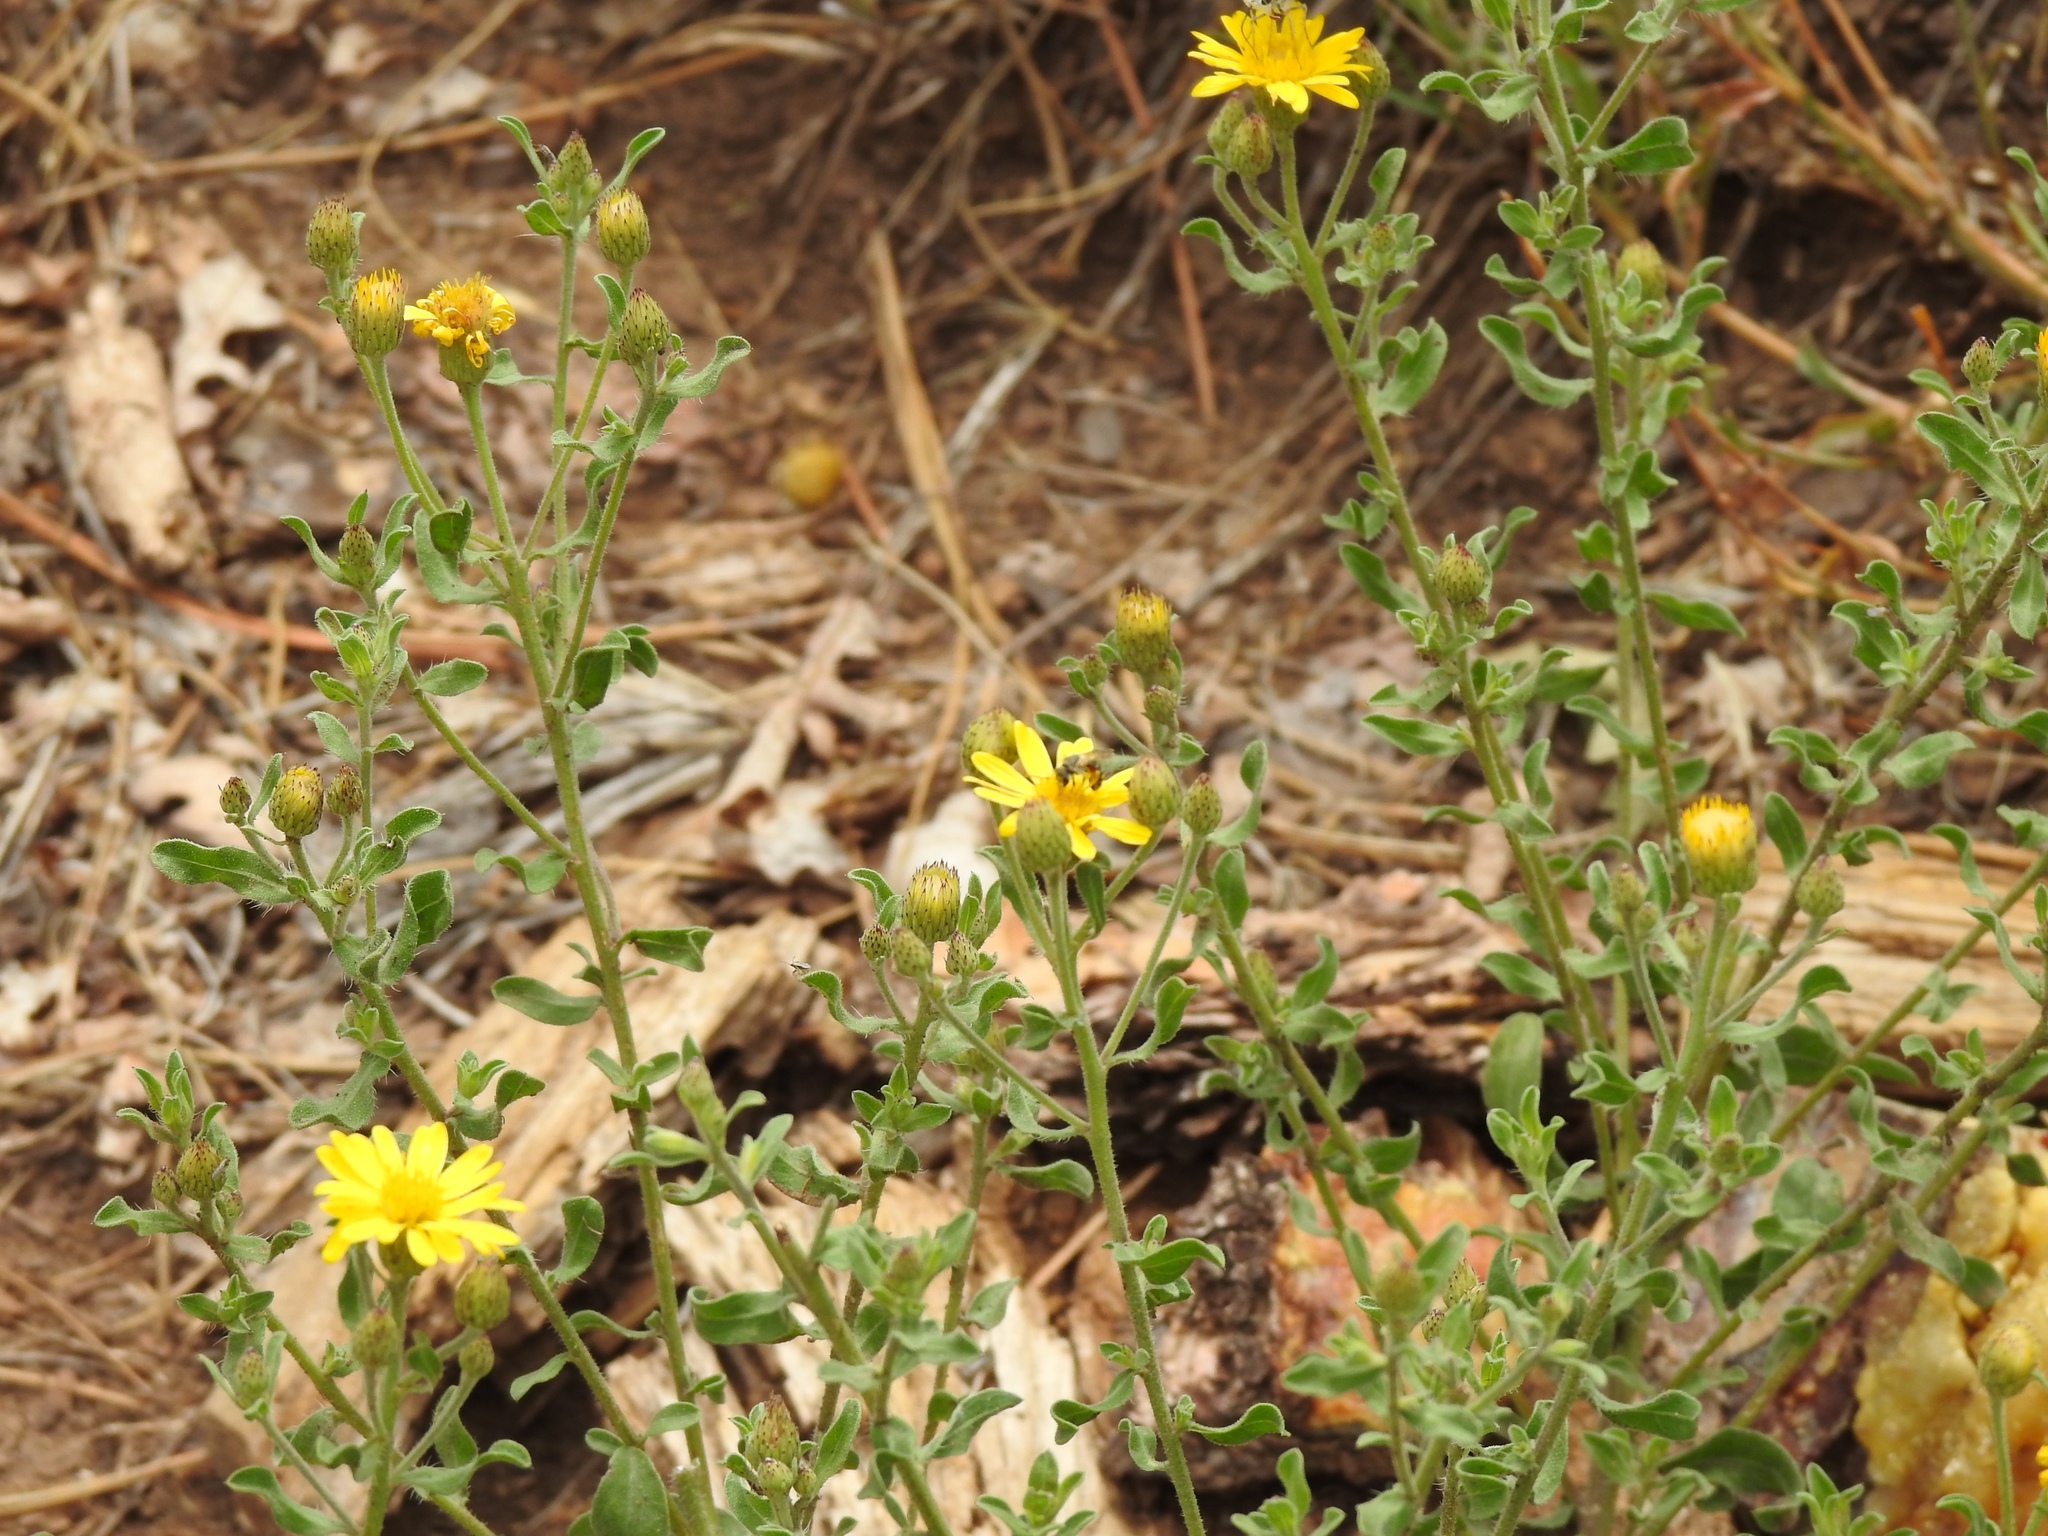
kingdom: Plantae
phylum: Tracheophyta
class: Magnoliopsida
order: Asterales
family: Asteraceae
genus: Heterotheca
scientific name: Heterotheca sierrablancensis
